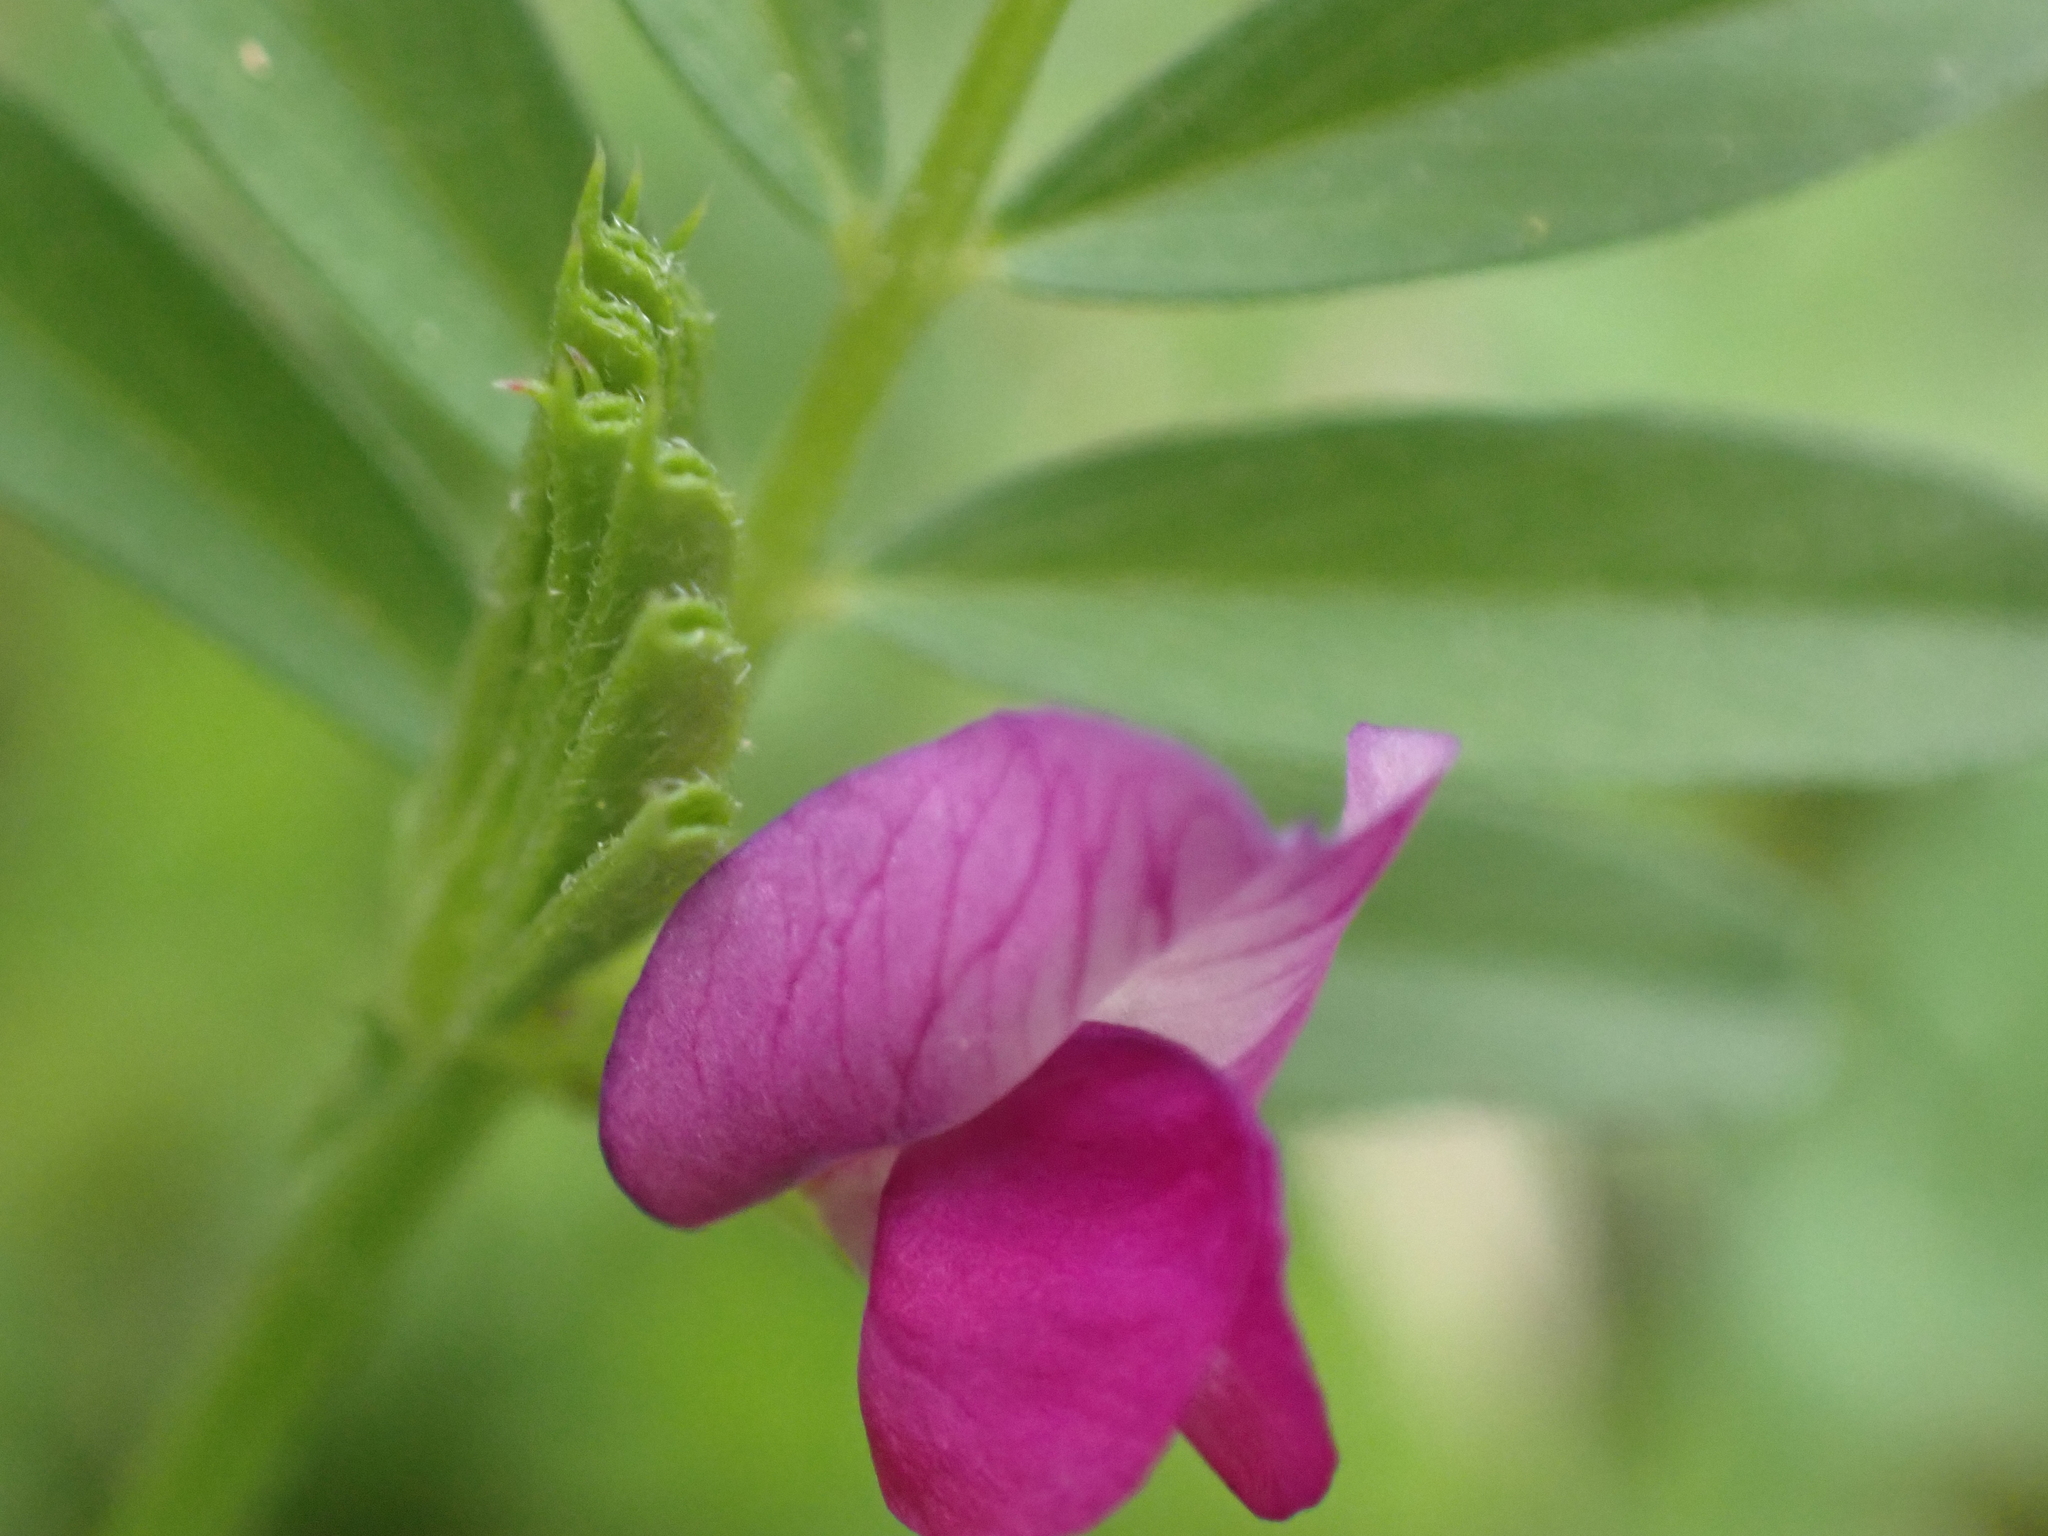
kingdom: Plantae
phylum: Tracheophyta
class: Magnoliopsida
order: Fabales
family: Fabaceae
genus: Vicia
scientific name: Vicia sativa
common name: Garden vetch
